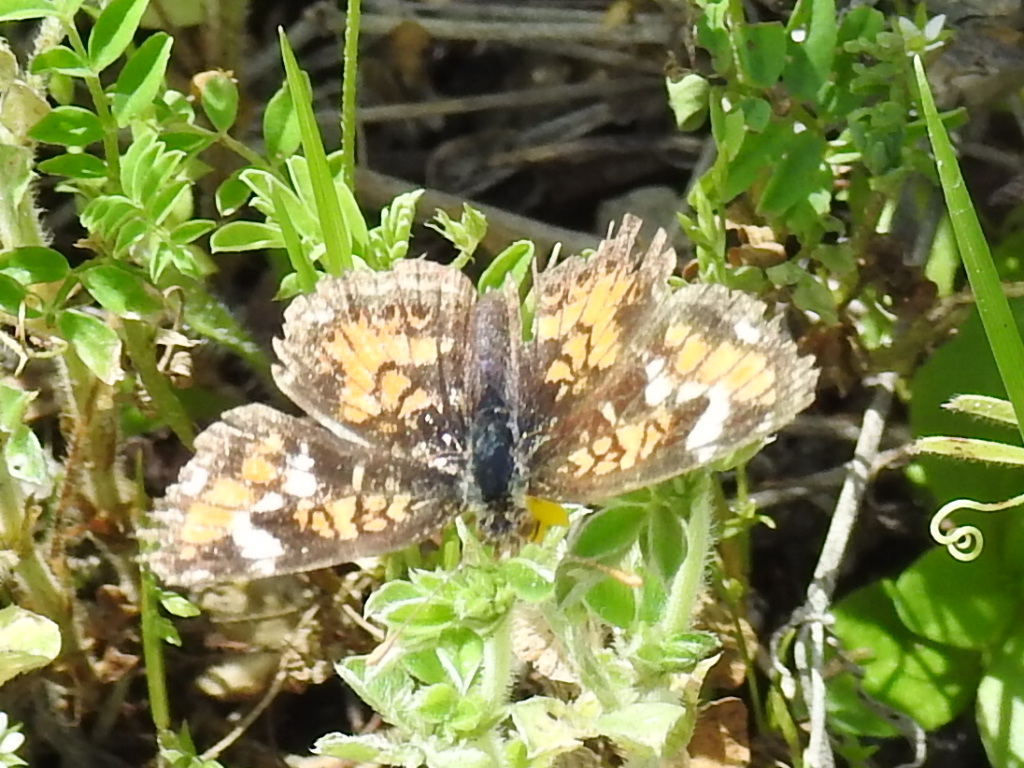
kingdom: Animalia
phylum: Arthropoda
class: Insecta
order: Lepidoptera
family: Nymphalidae
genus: Phyciodes
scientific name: Phyciodes phaon
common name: Phaon crescent
